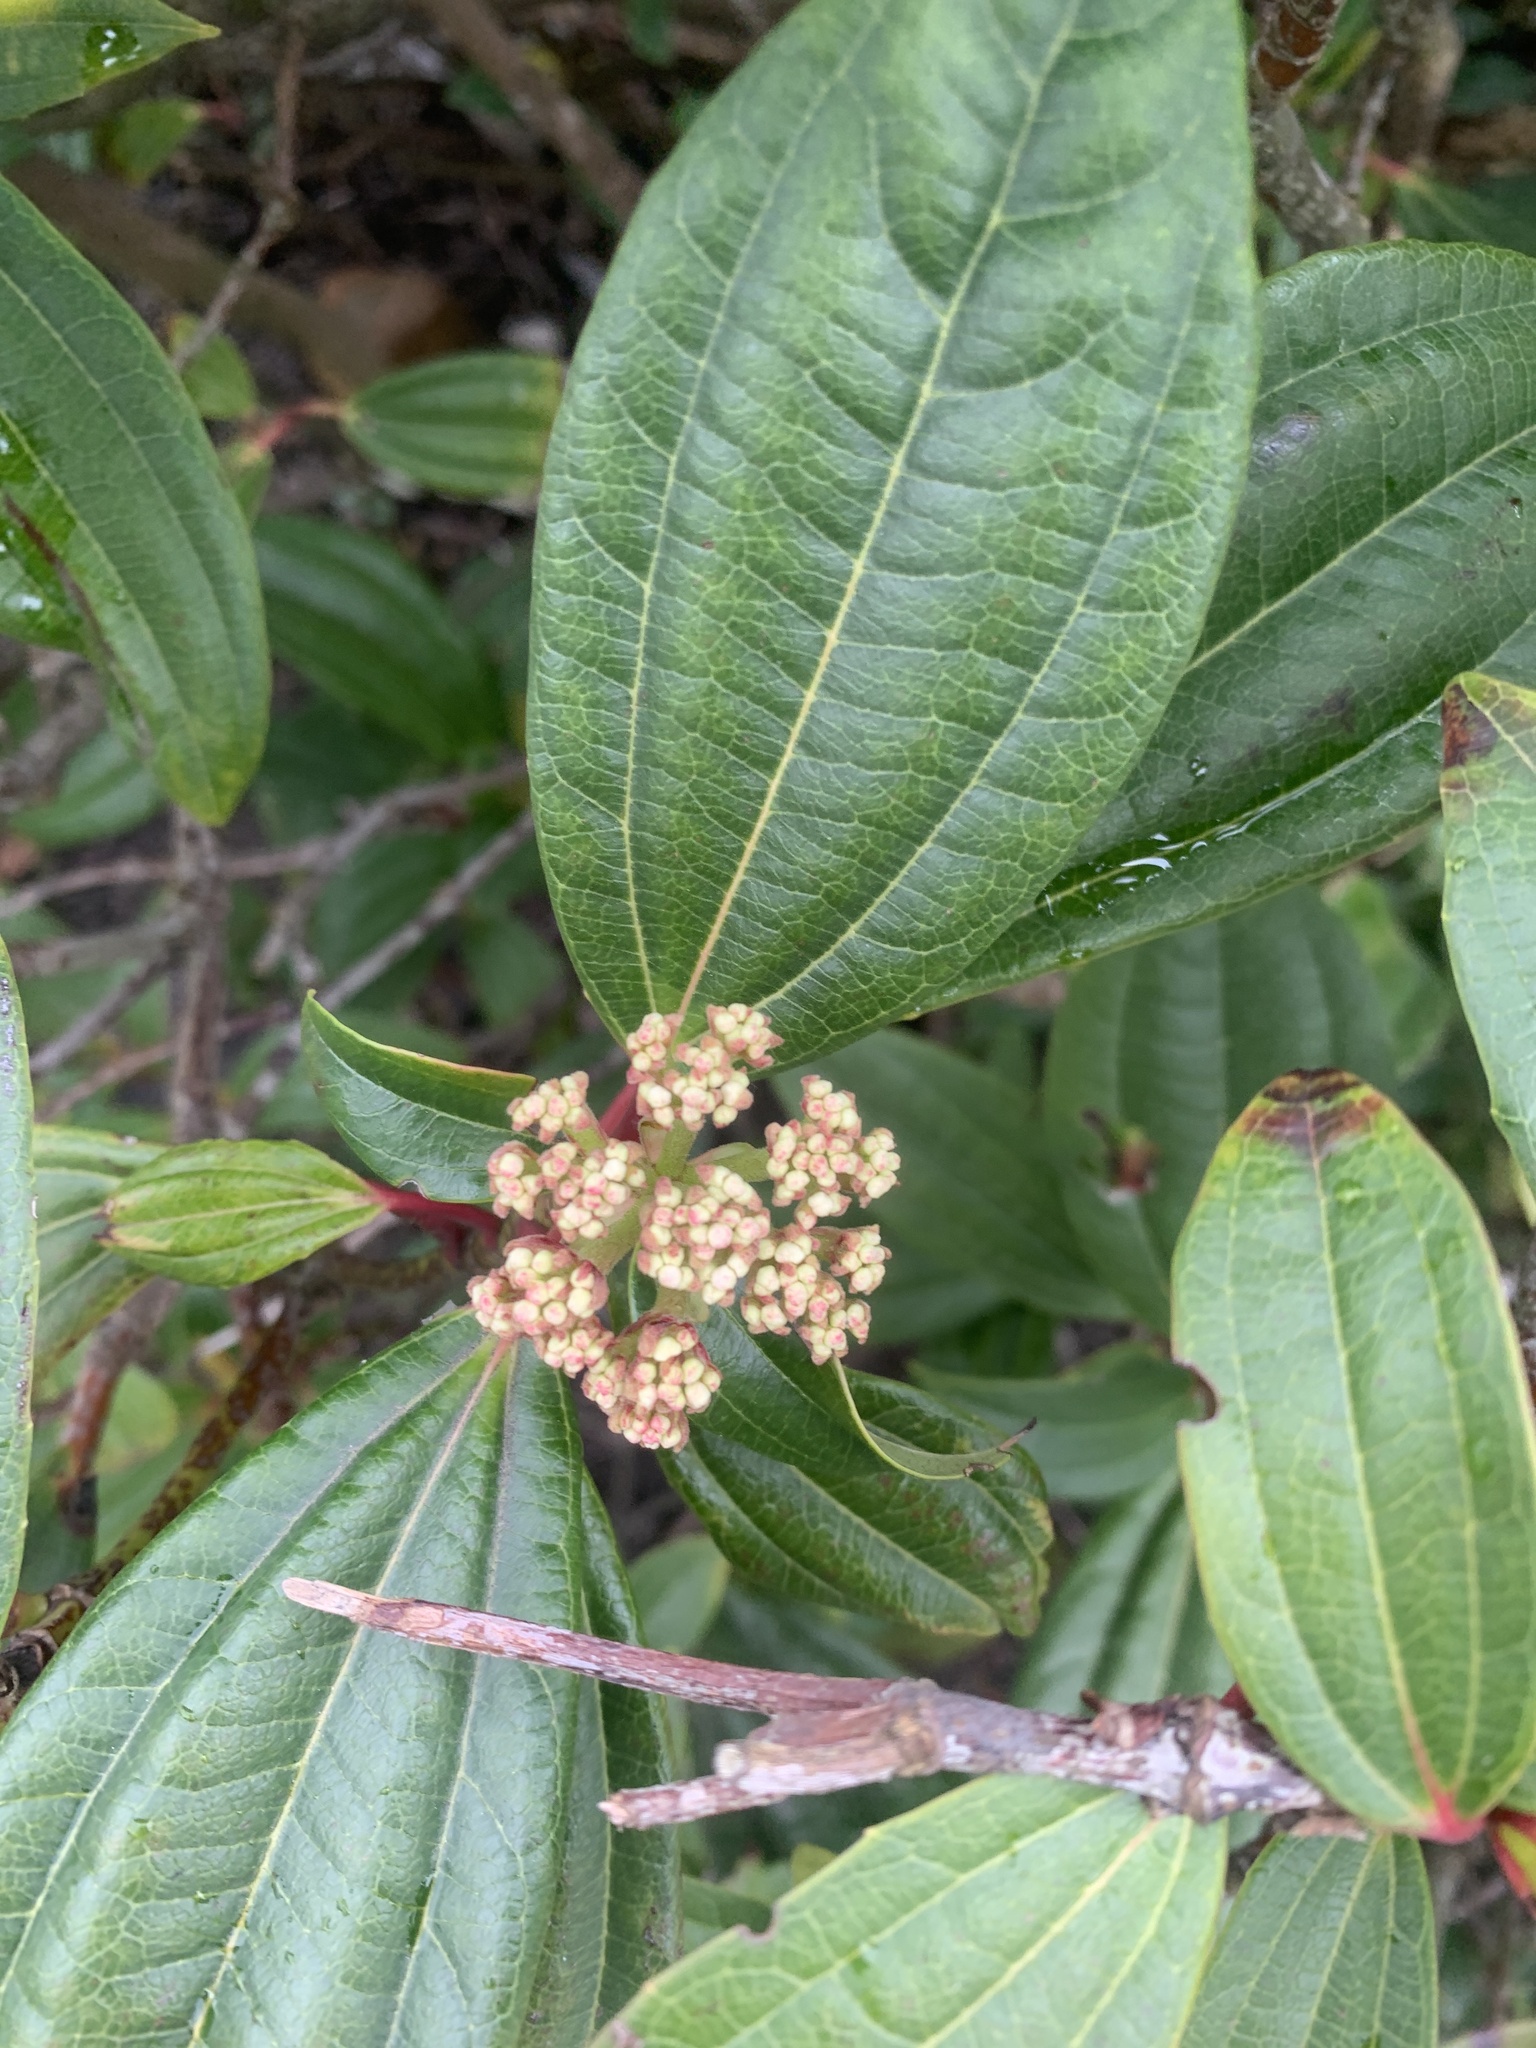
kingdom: Plantae
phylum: Tracheophyta
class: Magnoliopsida
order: Dipsacales
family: Viburnaceae
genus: Viburnum
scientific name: Viburnum davidi
